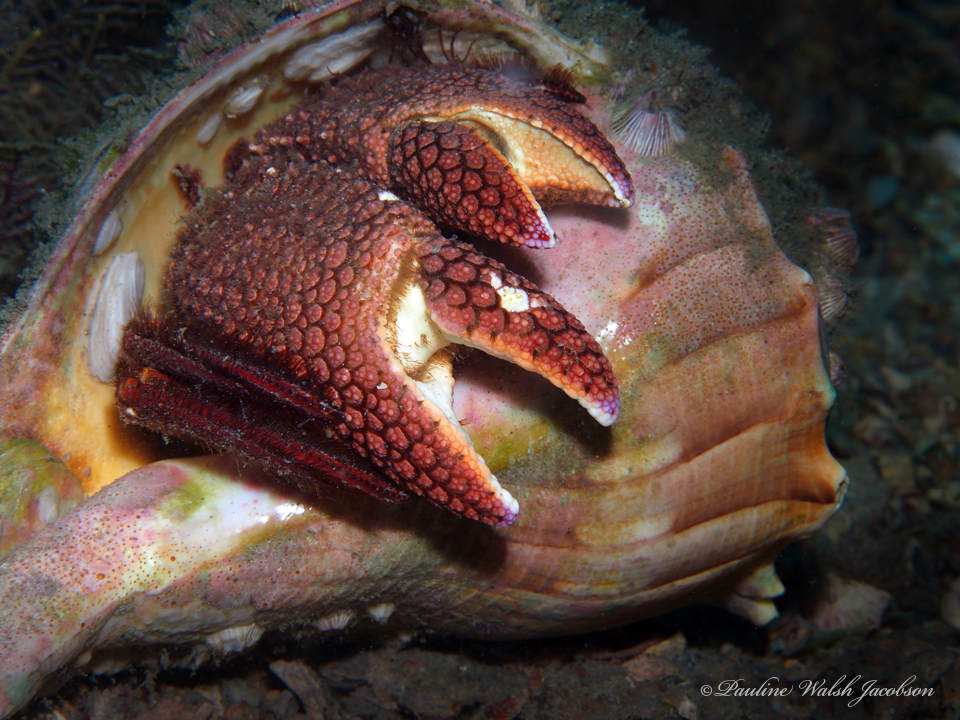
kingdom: Animalia
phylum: Arthropoda
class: Malacostraca
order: Decapoda
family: Diogenidae
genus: Petrochirus
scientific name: Petrochirus diogenes
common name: Giant hermit crab
